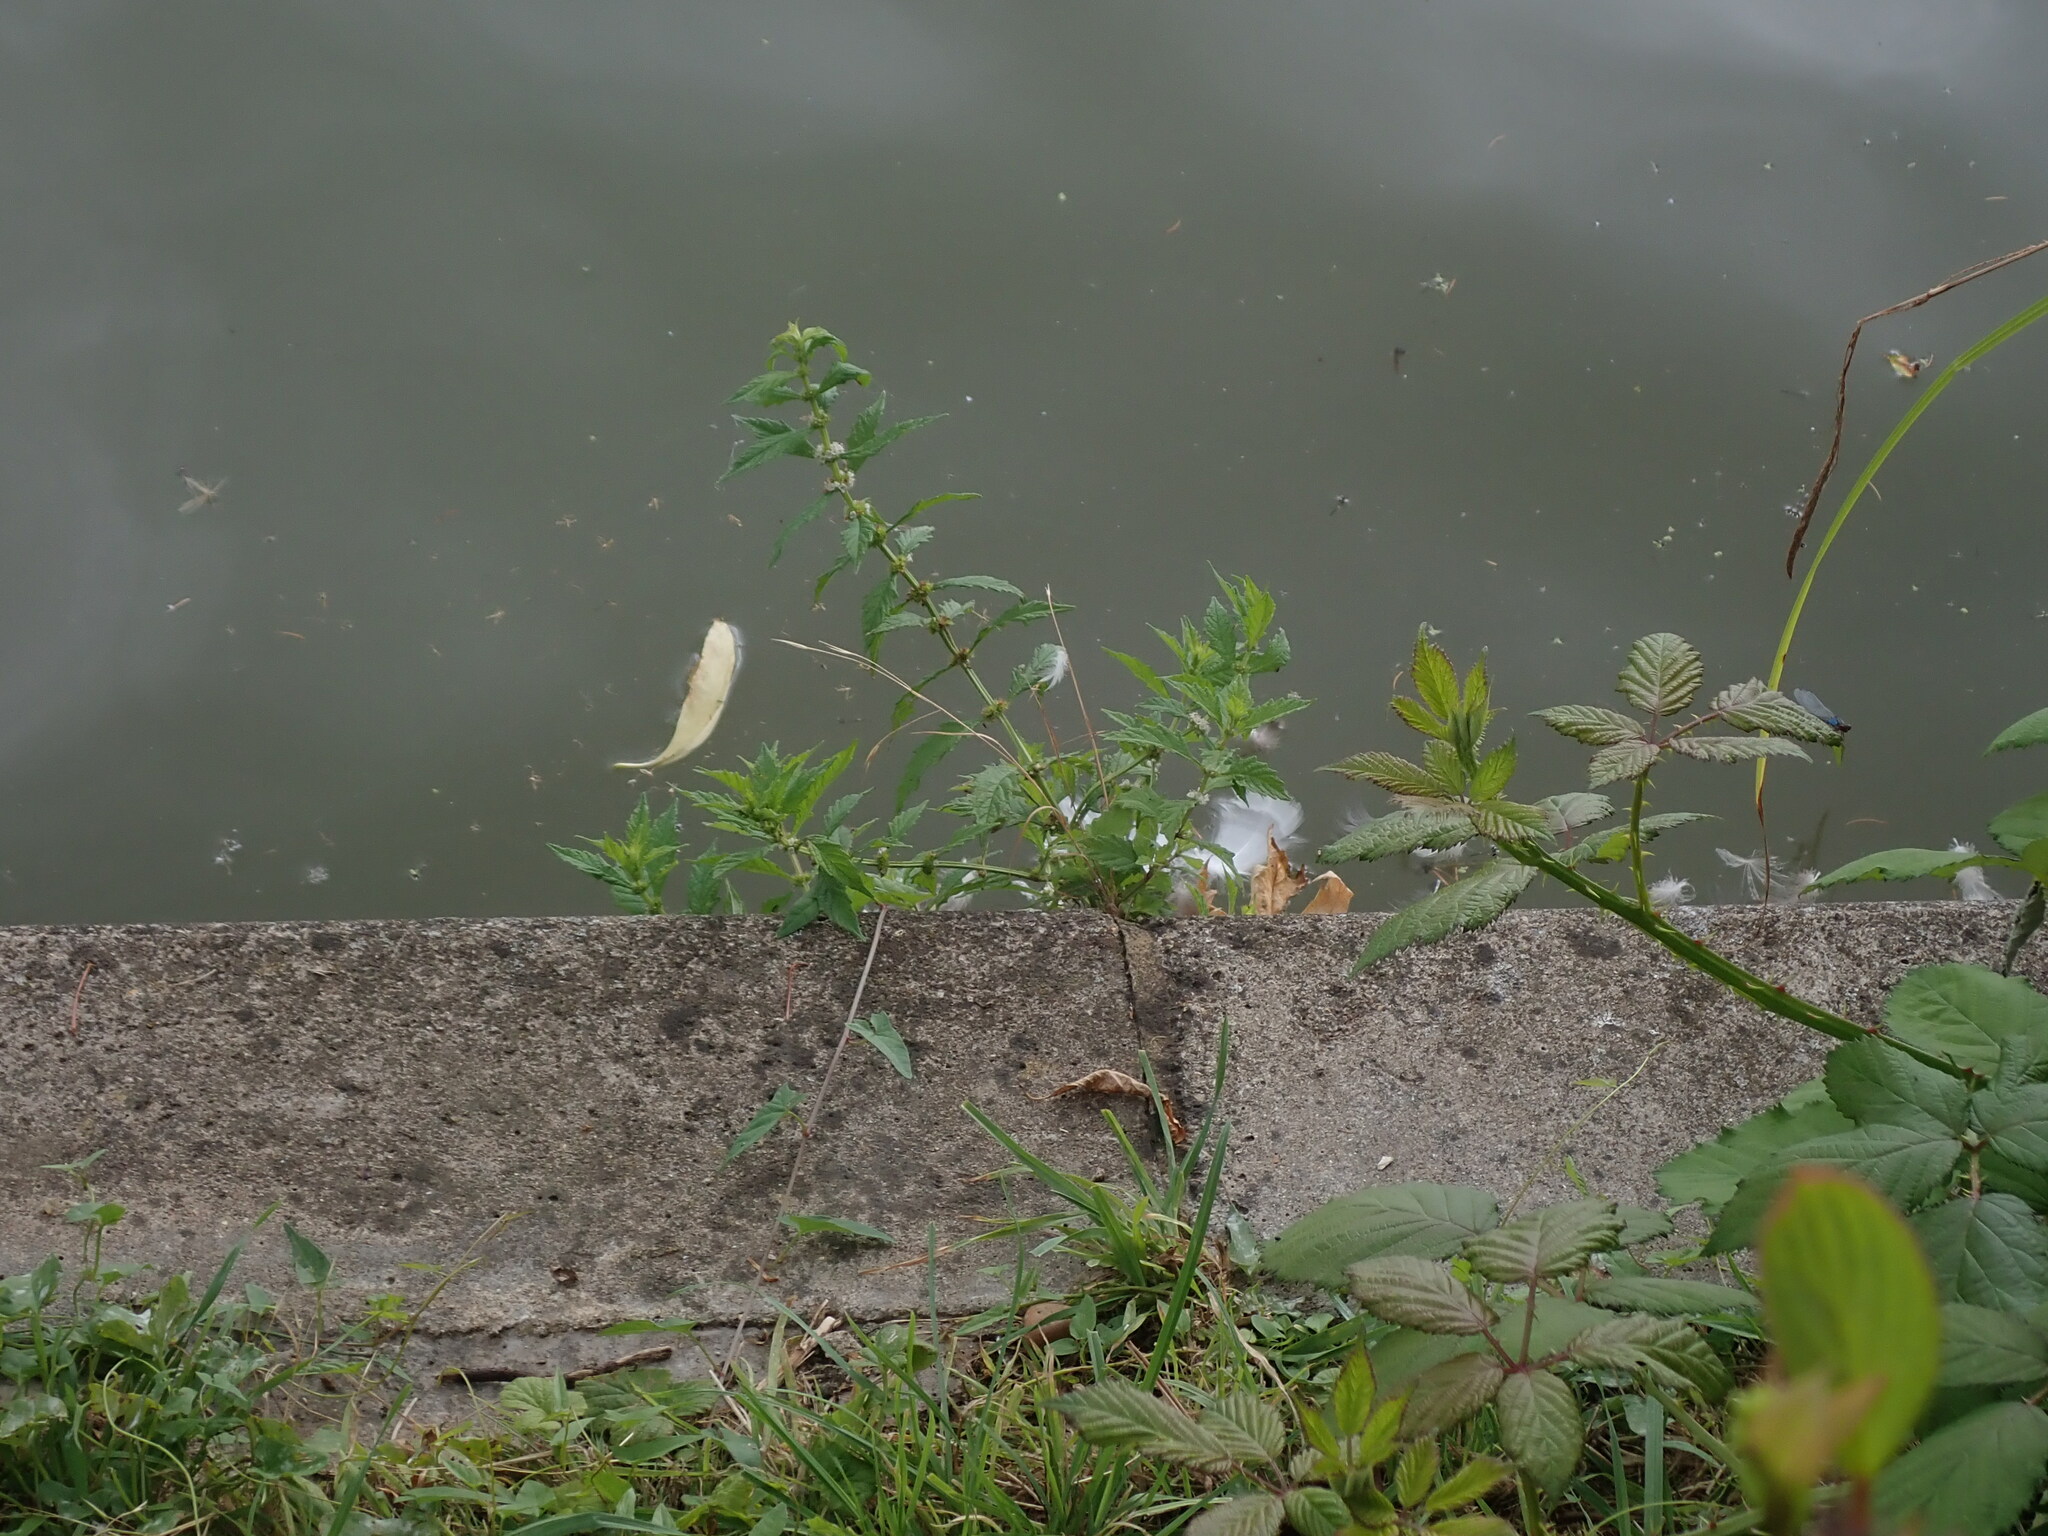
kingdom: Plantae
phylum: Tracheophyta
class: Magnoliopsida
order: Lamiales
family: Lamiaceae
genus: Lycopus
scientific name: Lycopus europaeus
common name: European bugleweed
